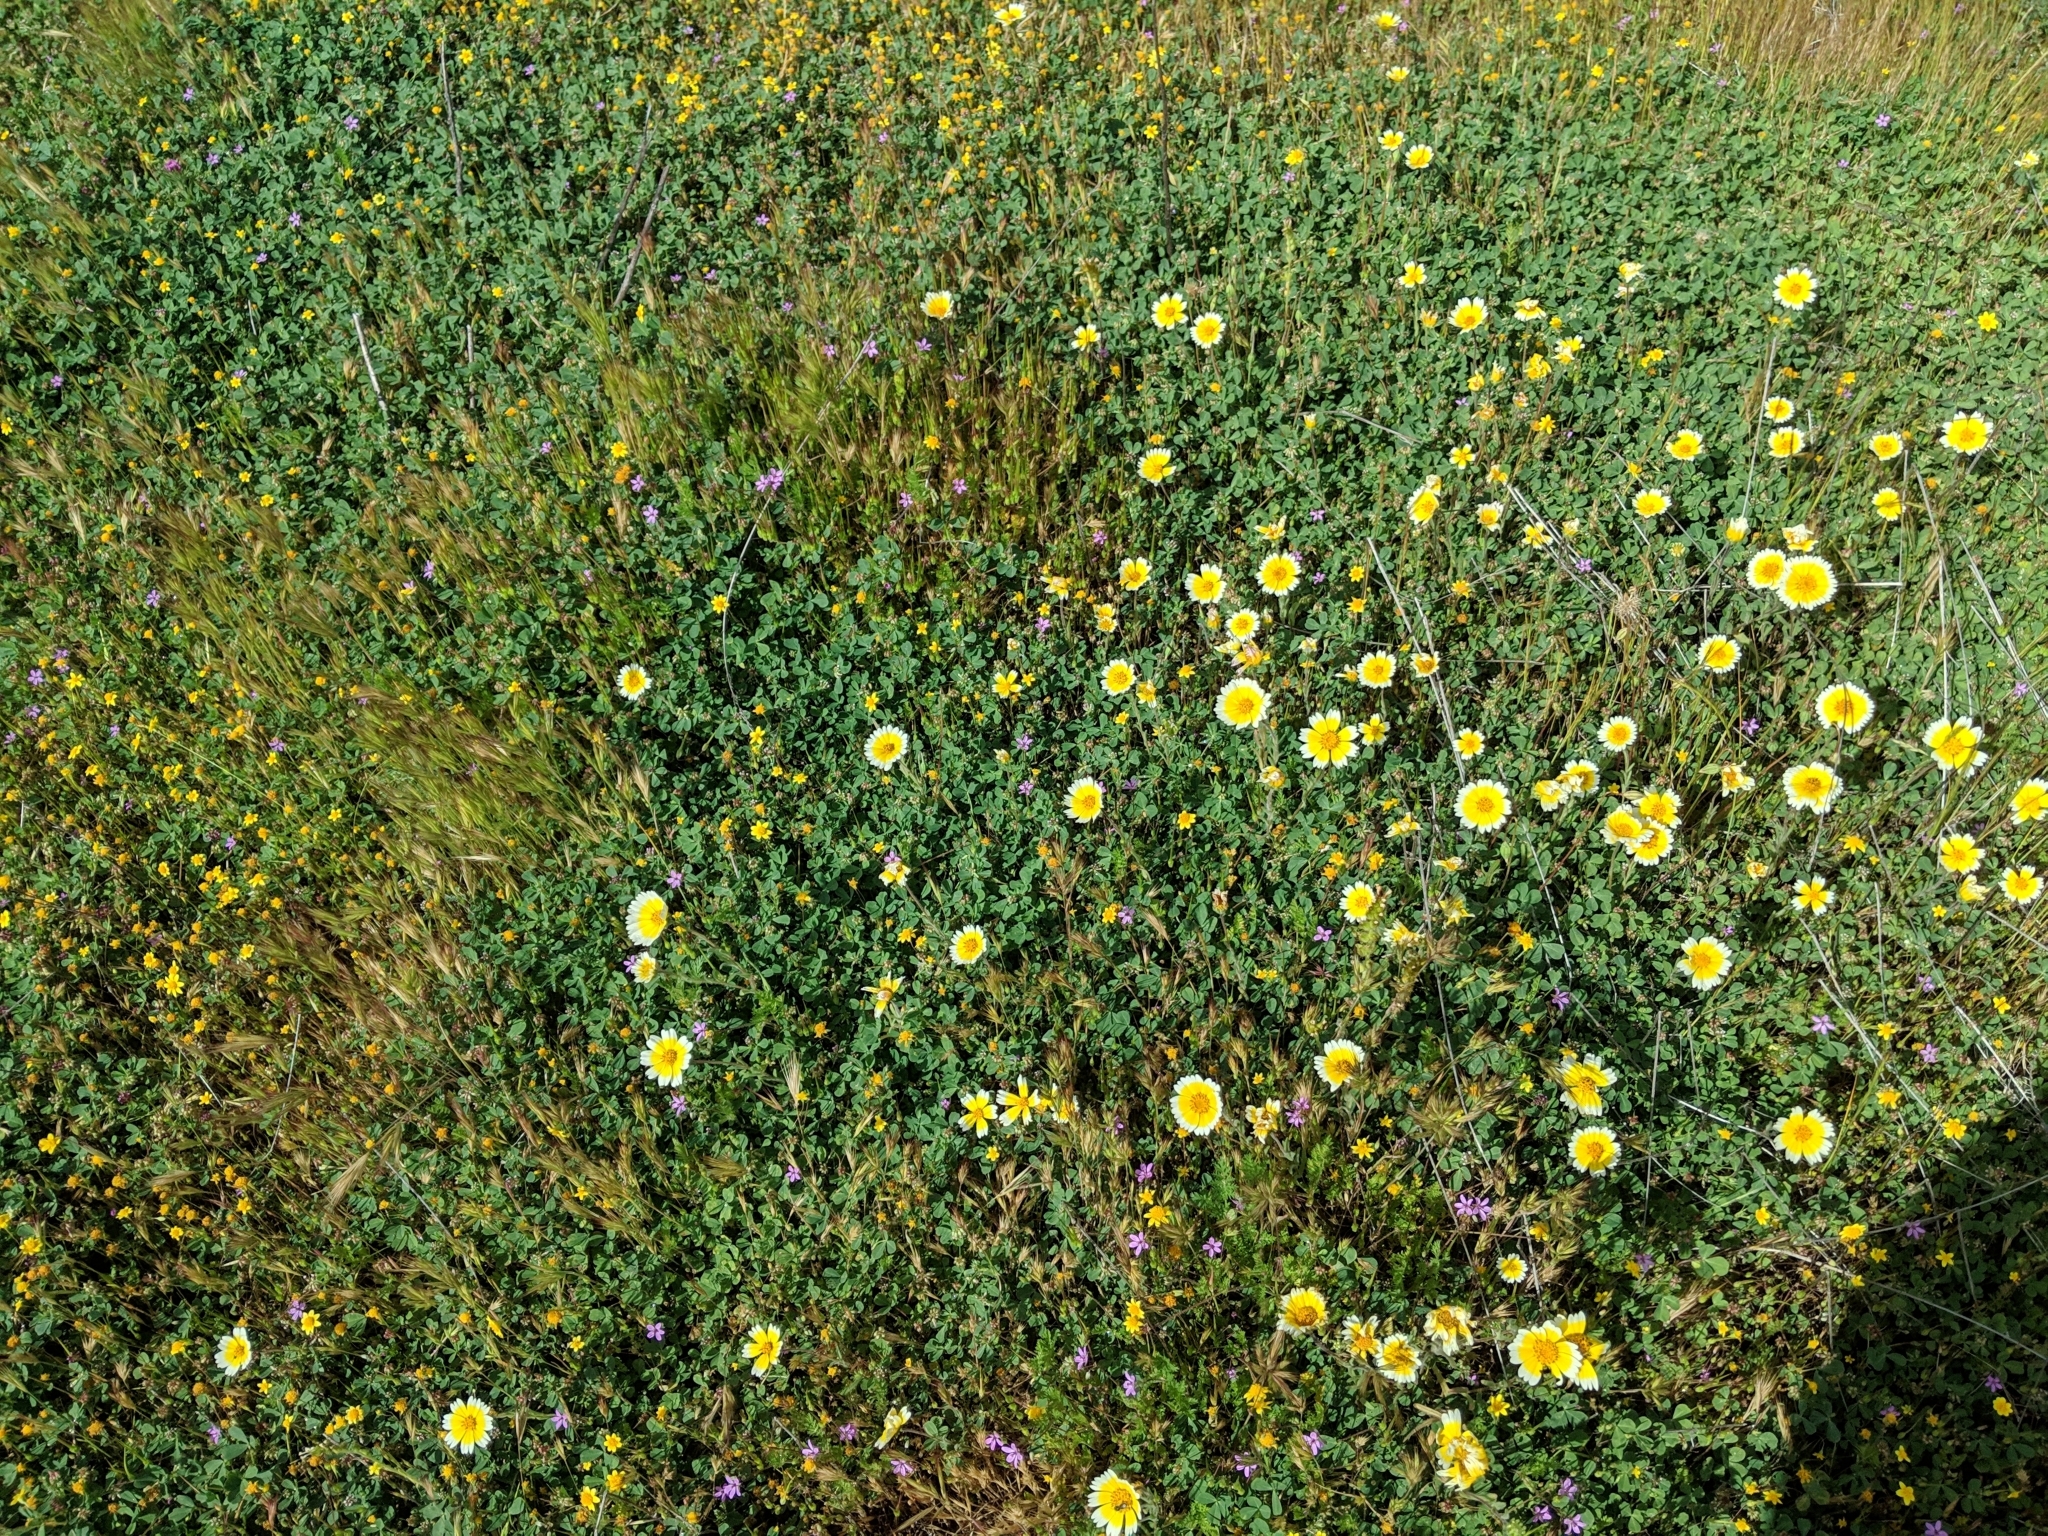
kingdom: Plantae
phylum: Tracheophyta
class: Magnoliopsida
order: Asterales
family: Asteraceae
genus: Layia
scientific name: Layia platyglossa
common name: Tidy-tips
